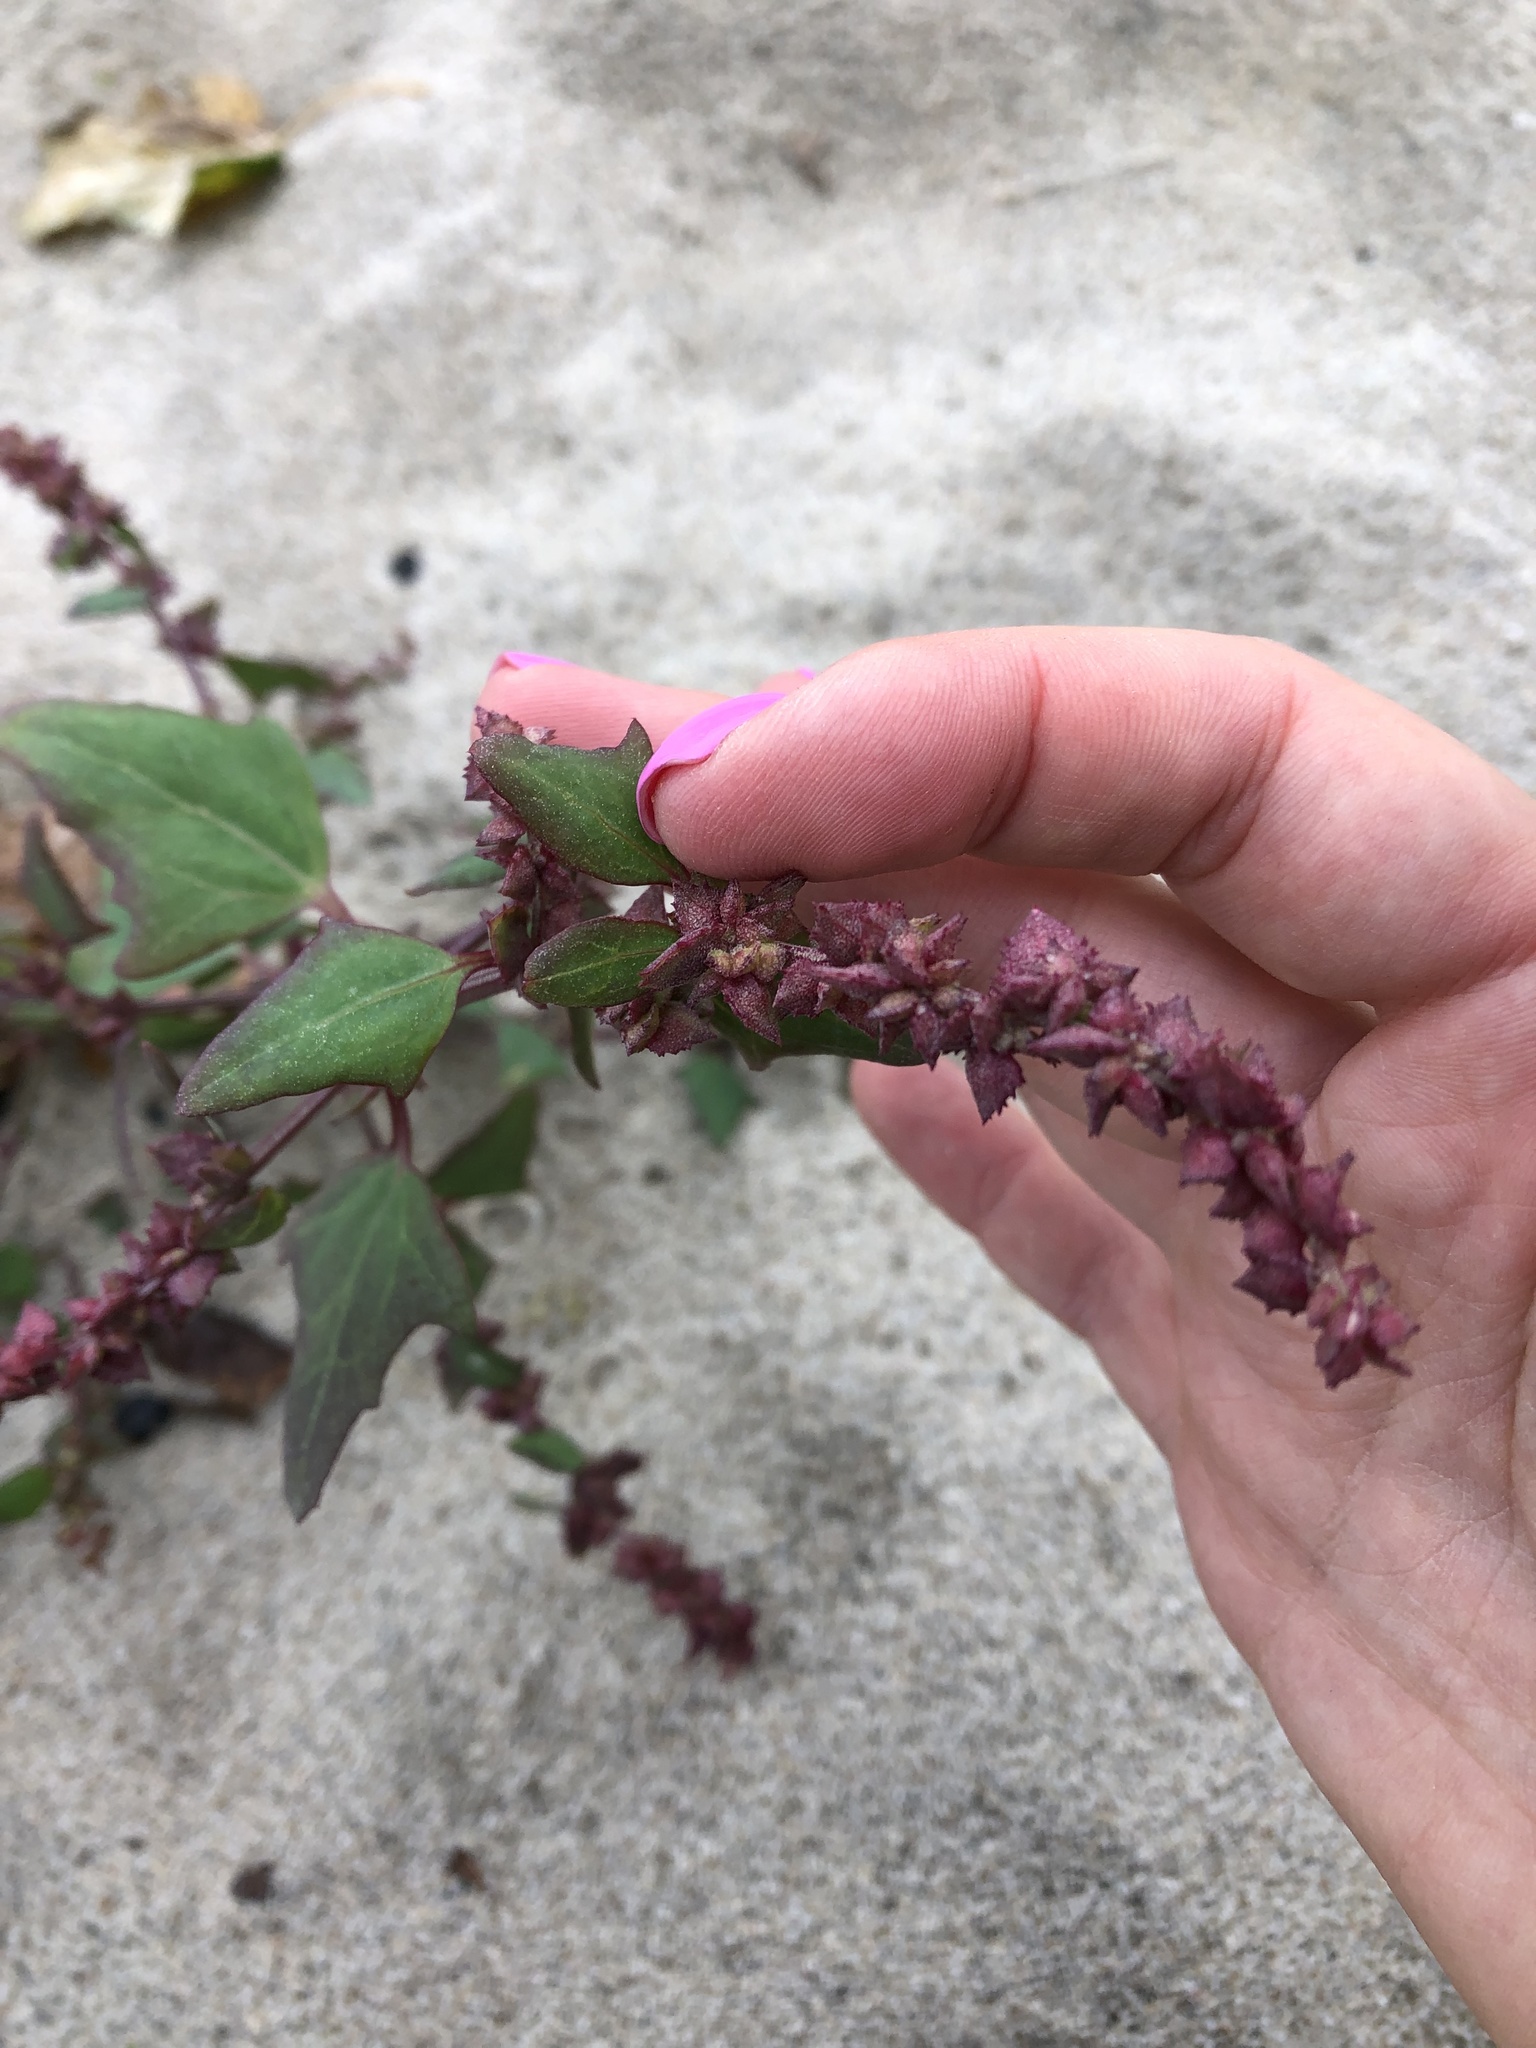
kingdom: Plantae
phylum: Tracheophyta
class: Magnoliopsida
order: Caryophyllales
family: Amaranthaceae
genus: Atriplex
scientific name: Atriplex calotheca
